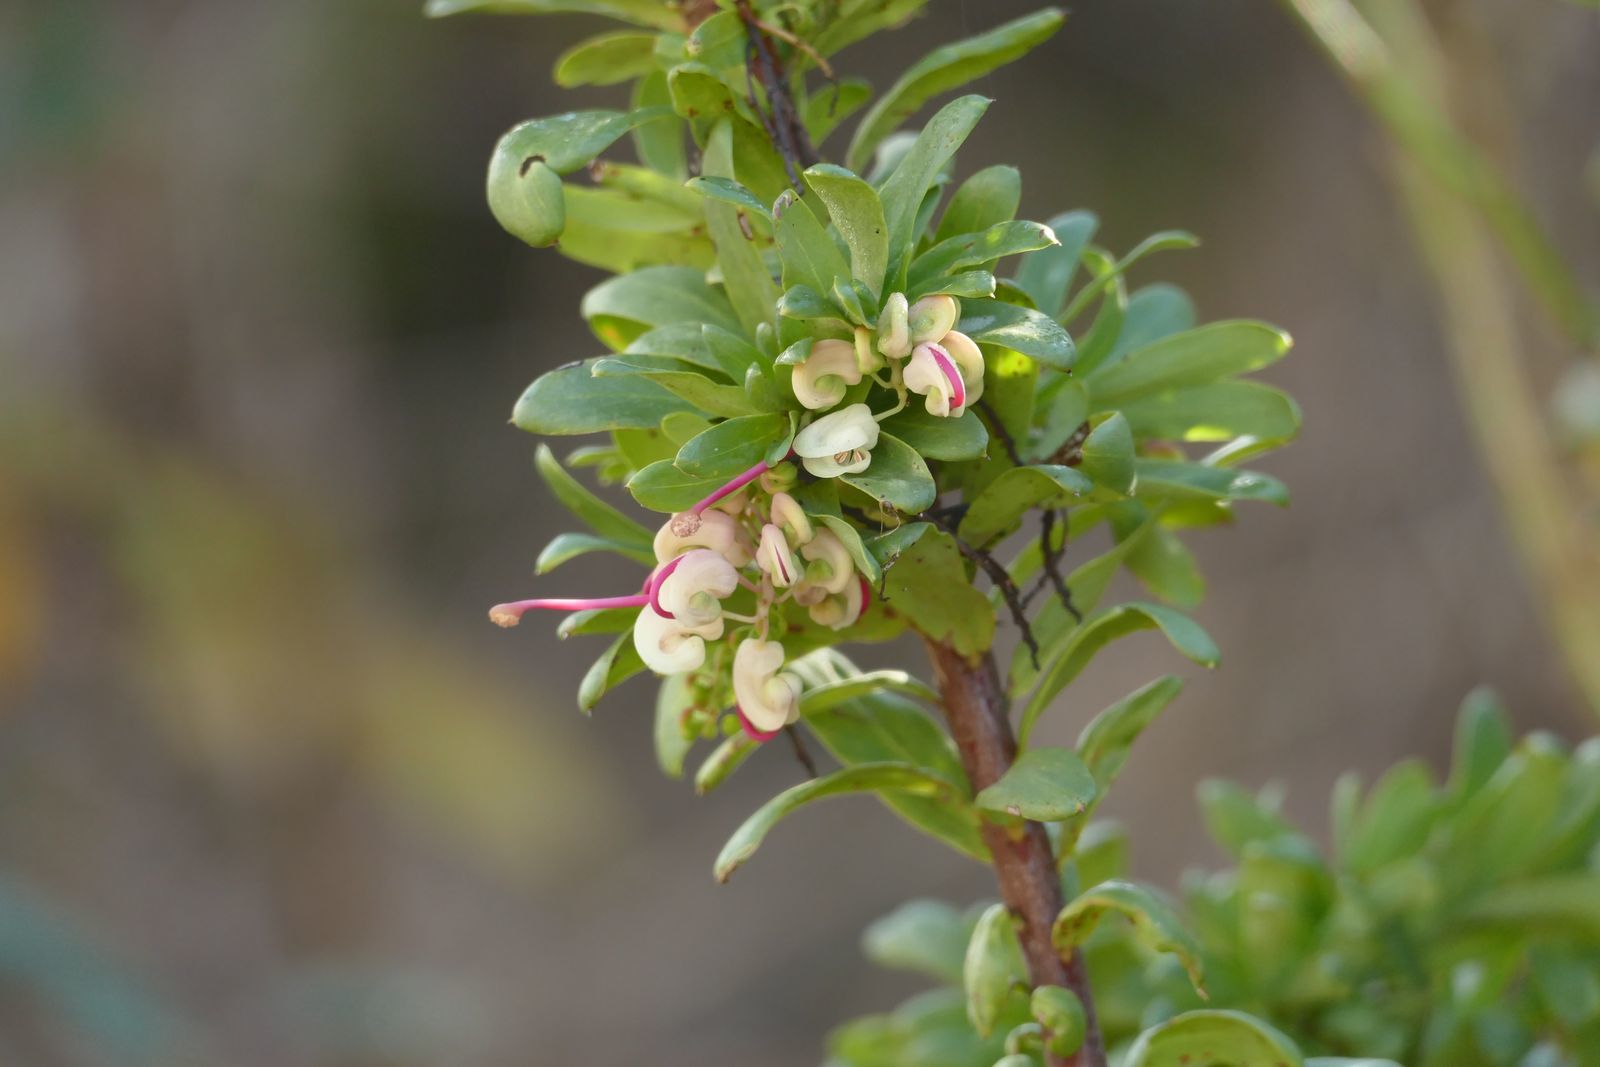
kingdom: Plantae
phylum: Tracheophyta
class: Magnoliopsida
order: Proteales
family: Proteaceae
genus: Grevillea
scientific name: Grevillea iaspicula
